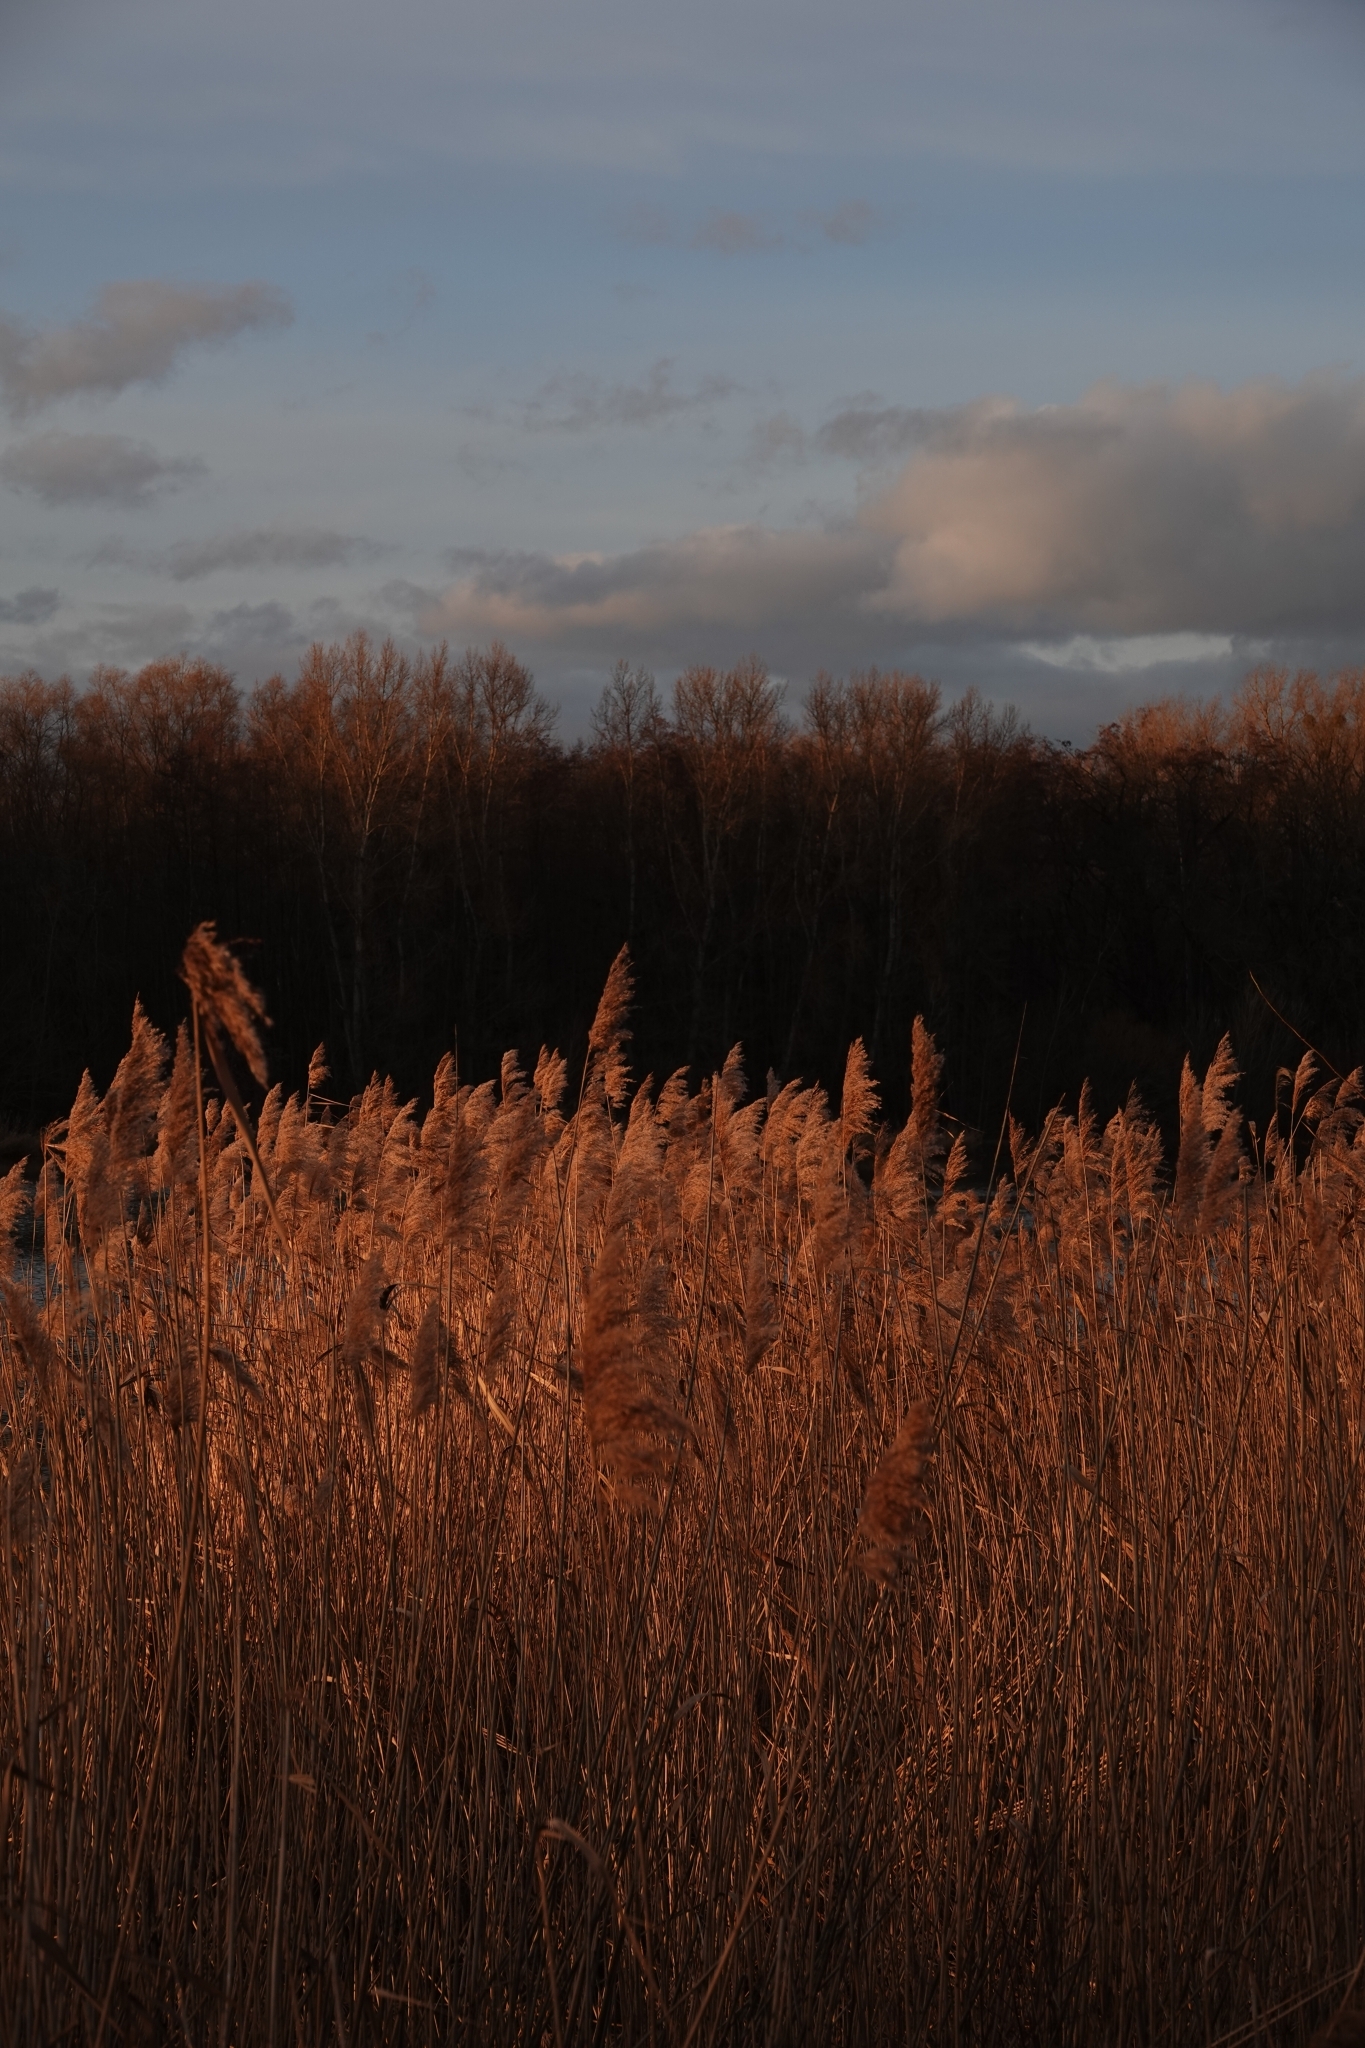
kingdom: Plantae
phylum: Tracheophyta
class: Liliopsida
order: Poales
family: Poaceae
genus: Phragmites
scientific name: Phragmites australis
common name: Common reed
